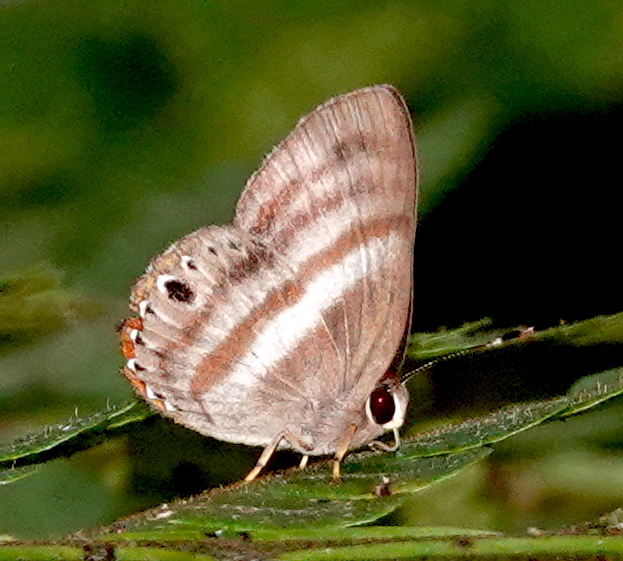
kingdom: Animalia
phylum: Arthropoda
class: Insecta
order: Lepidoptera
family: Riodinidae
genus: Pelolasia
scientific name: Pelolasia
